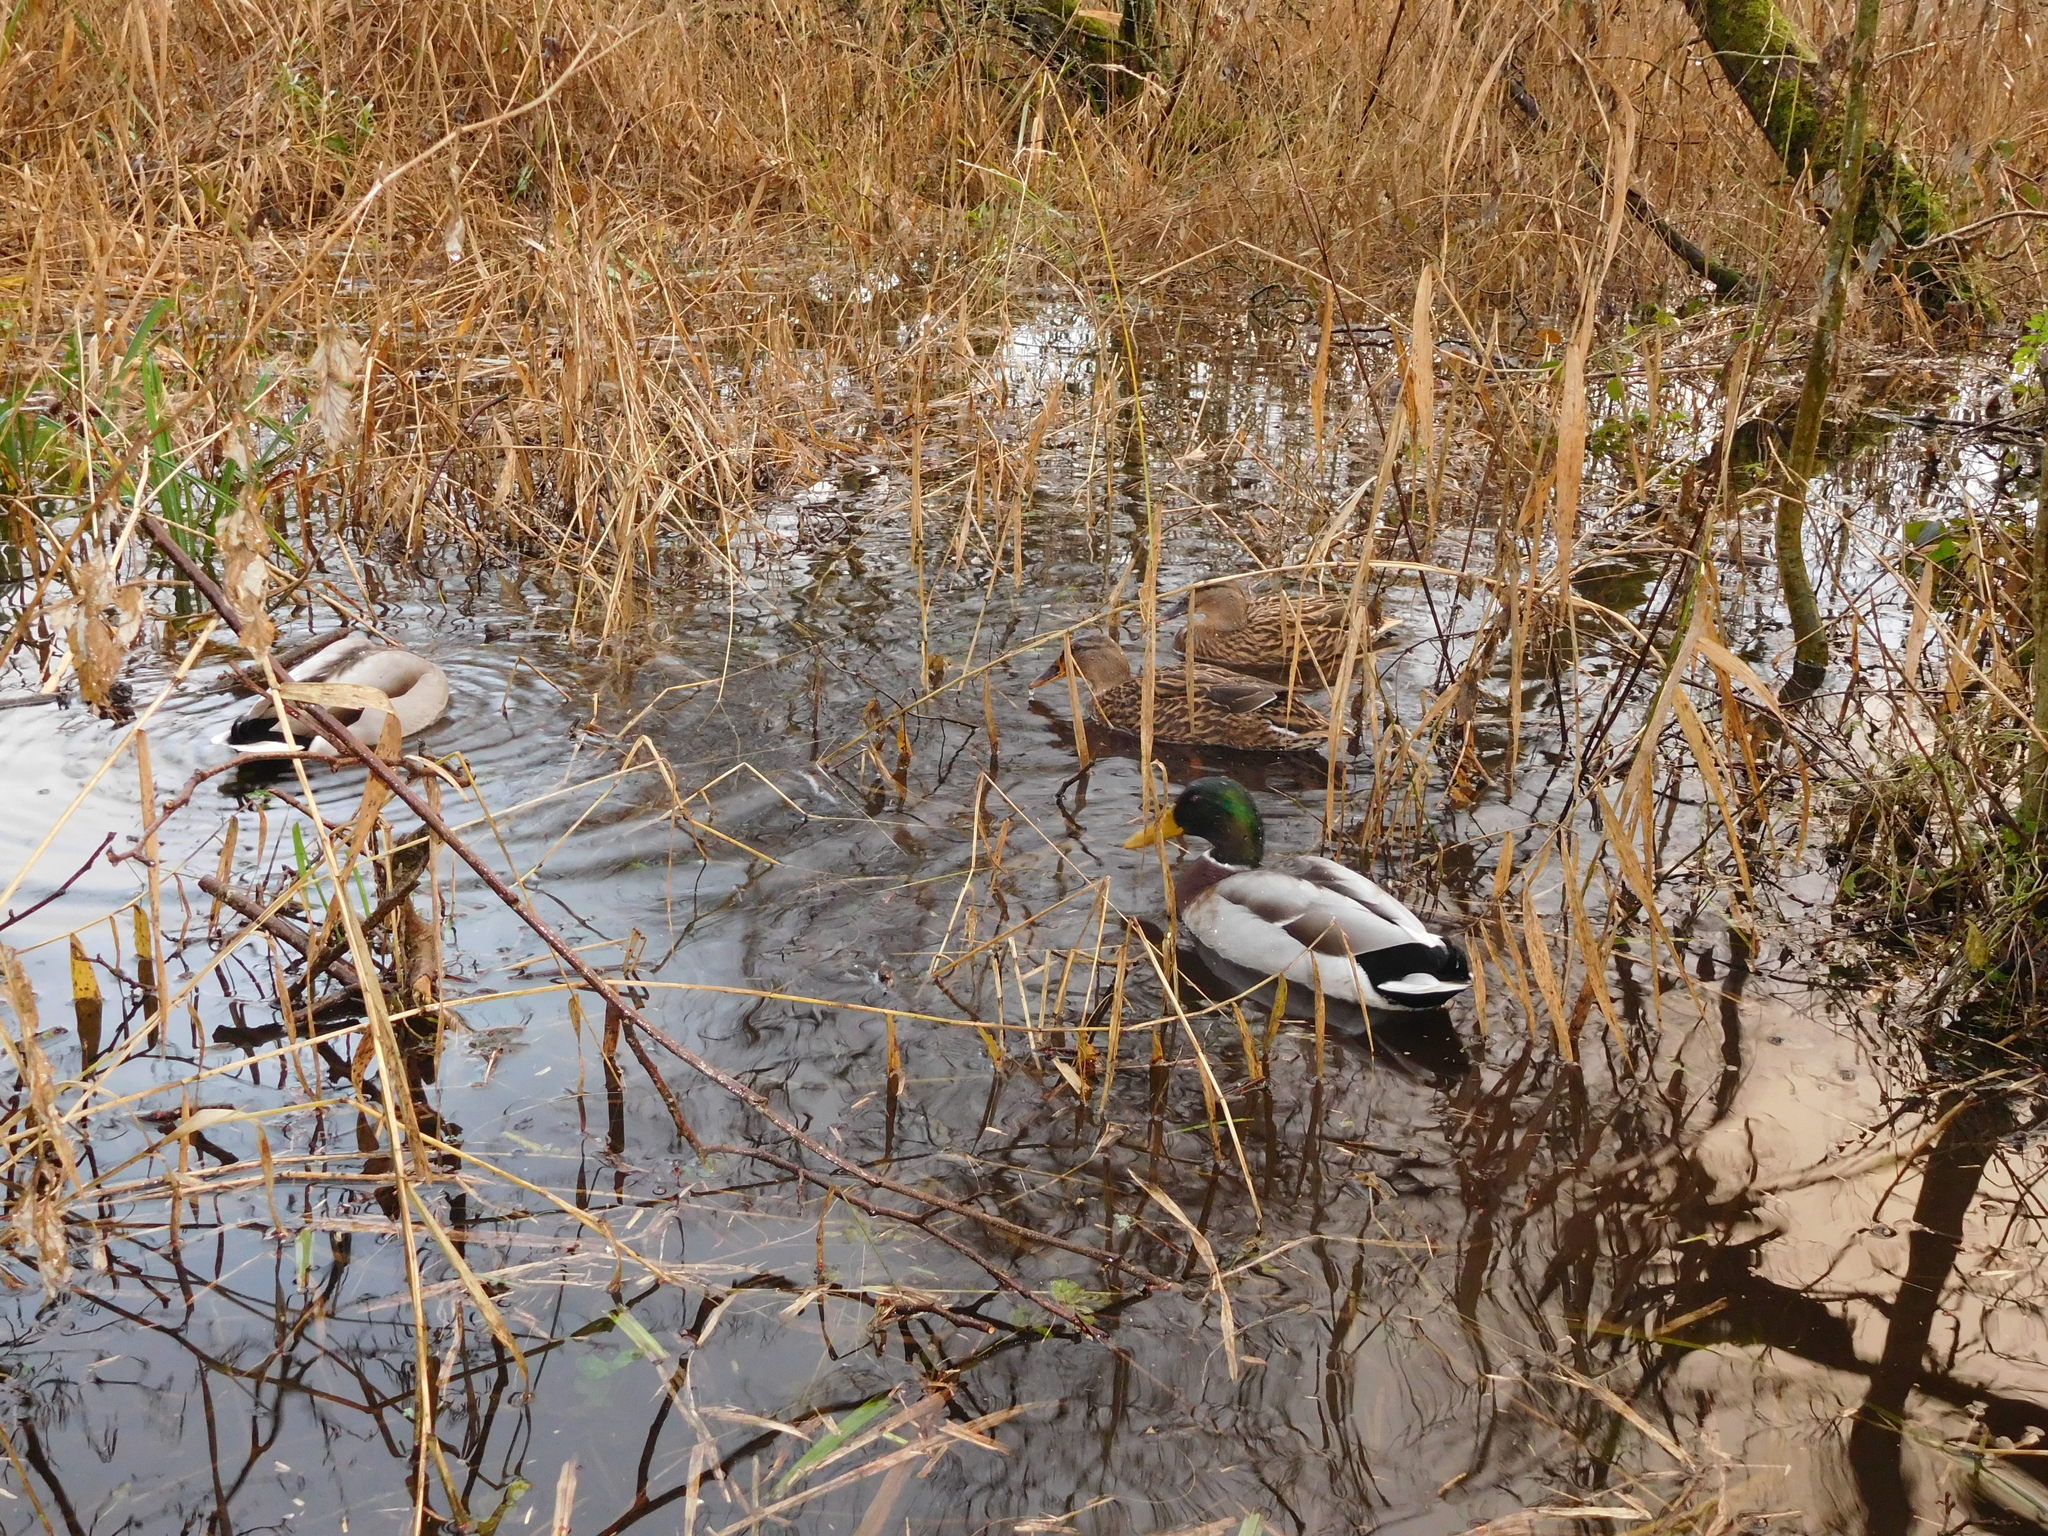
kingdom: Animalia
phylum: Chordata
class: Aves
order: Anseriformes
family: Anatidae
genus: Anas
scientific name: Anas platyrhynchos
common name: Mallard
